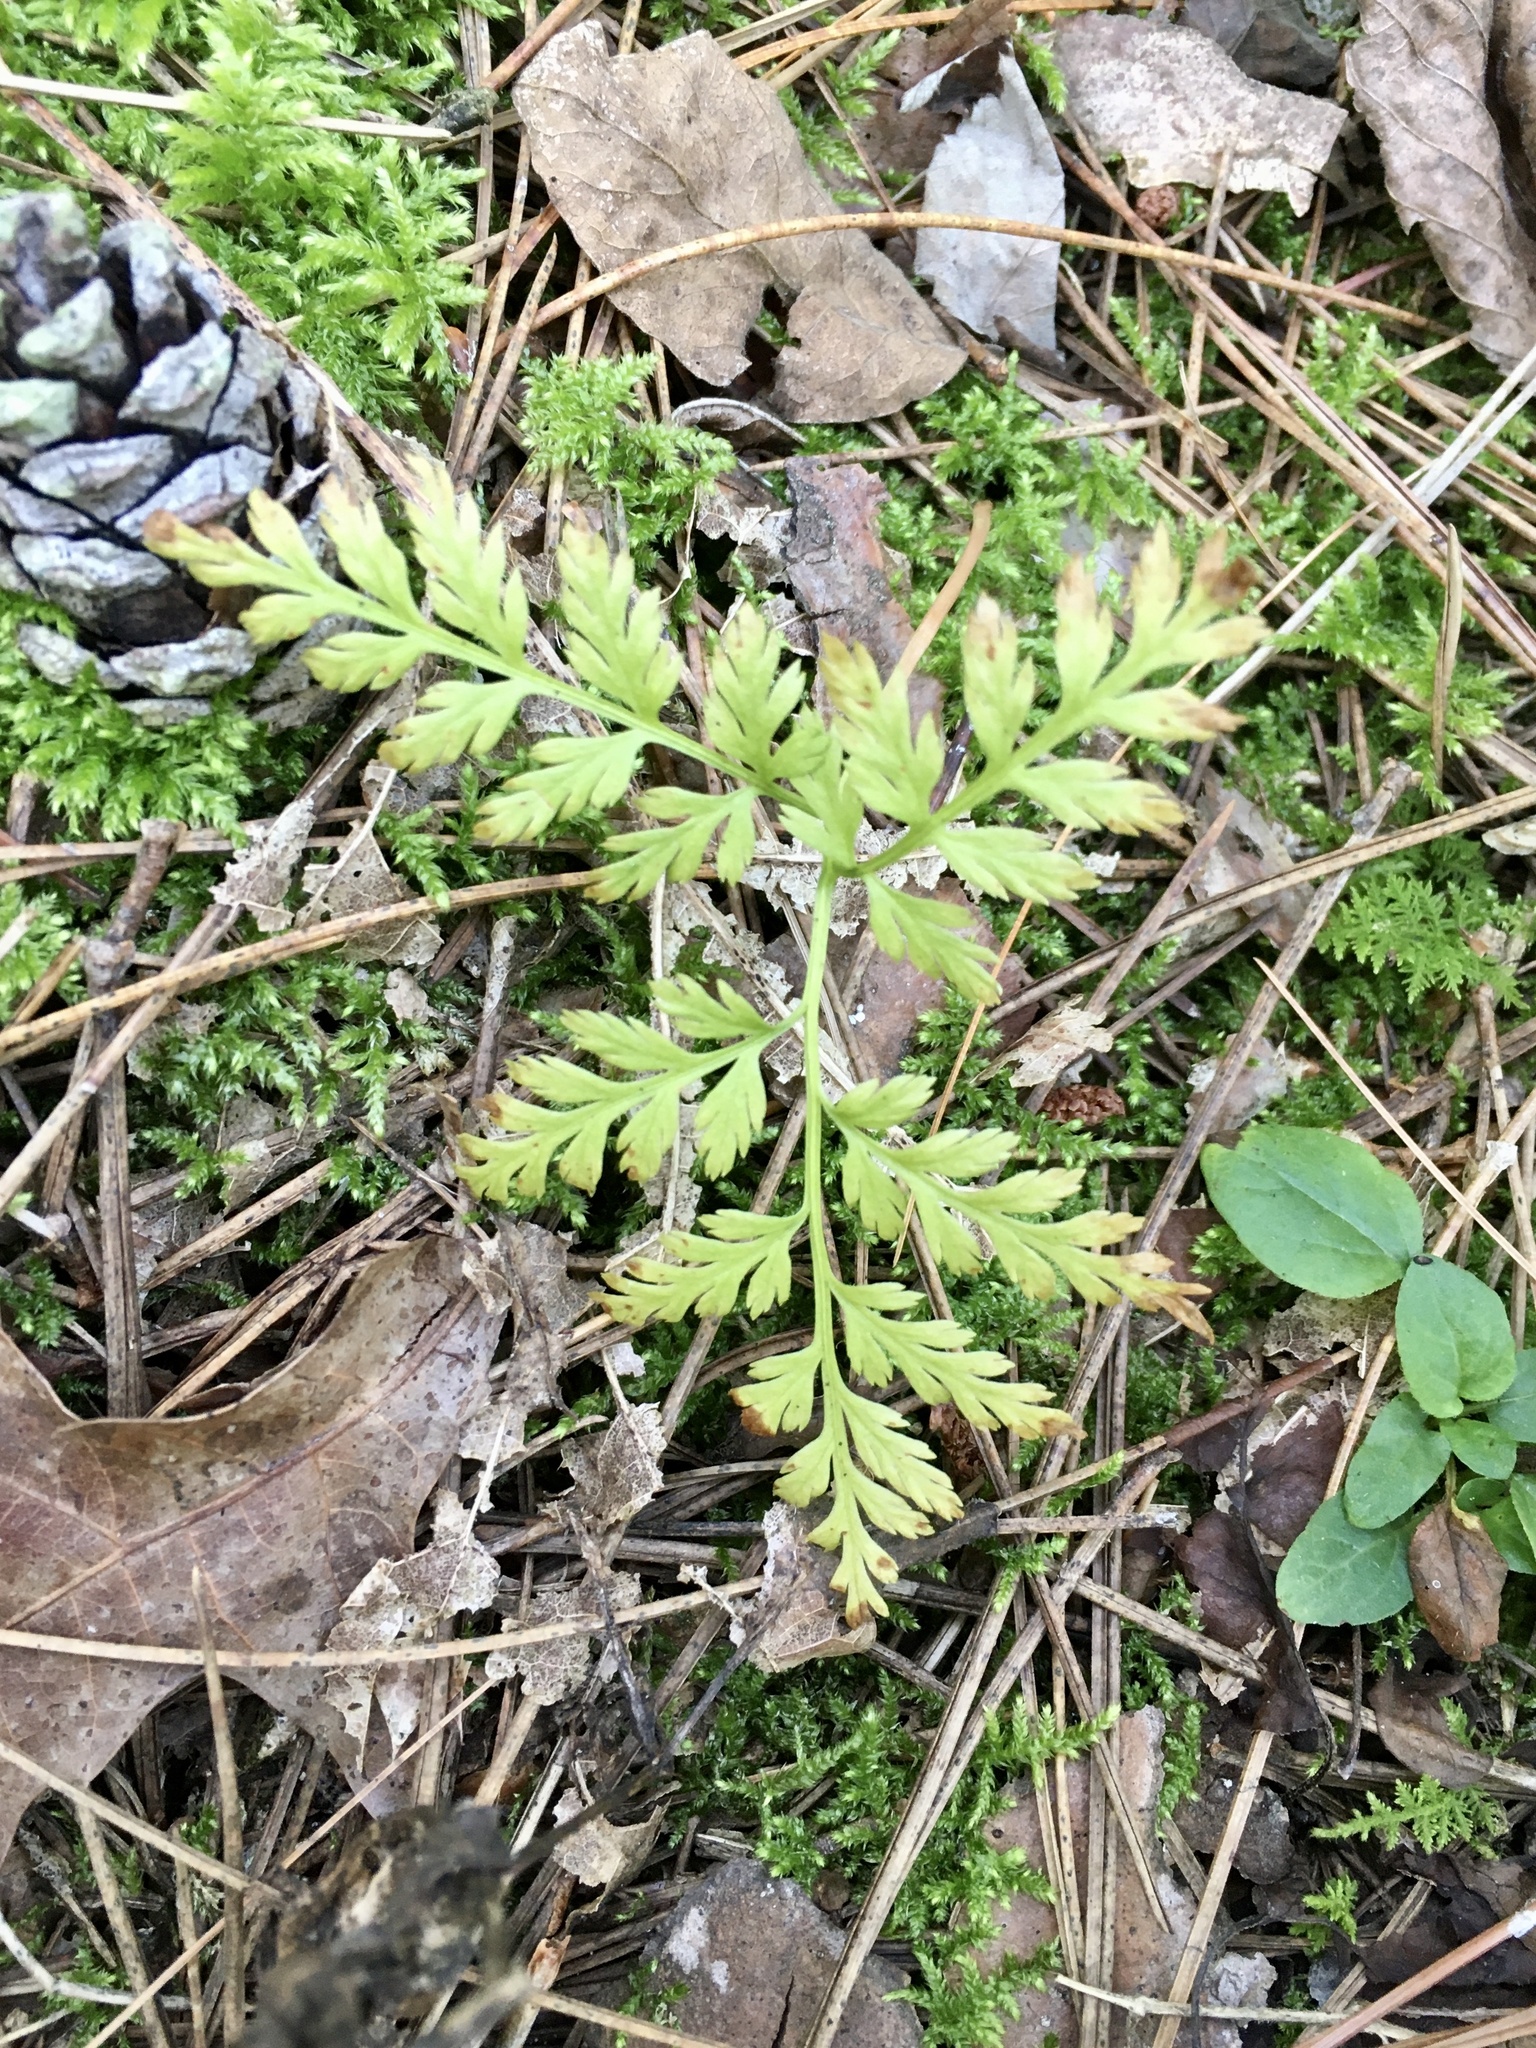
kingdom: Plantae
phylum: Tracheophyta
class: Polypodiopsida
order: Ophioglossales
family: Ophioglossaceae
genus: Botrypus
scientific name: Botrypus virginianus
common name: Common grapefern
